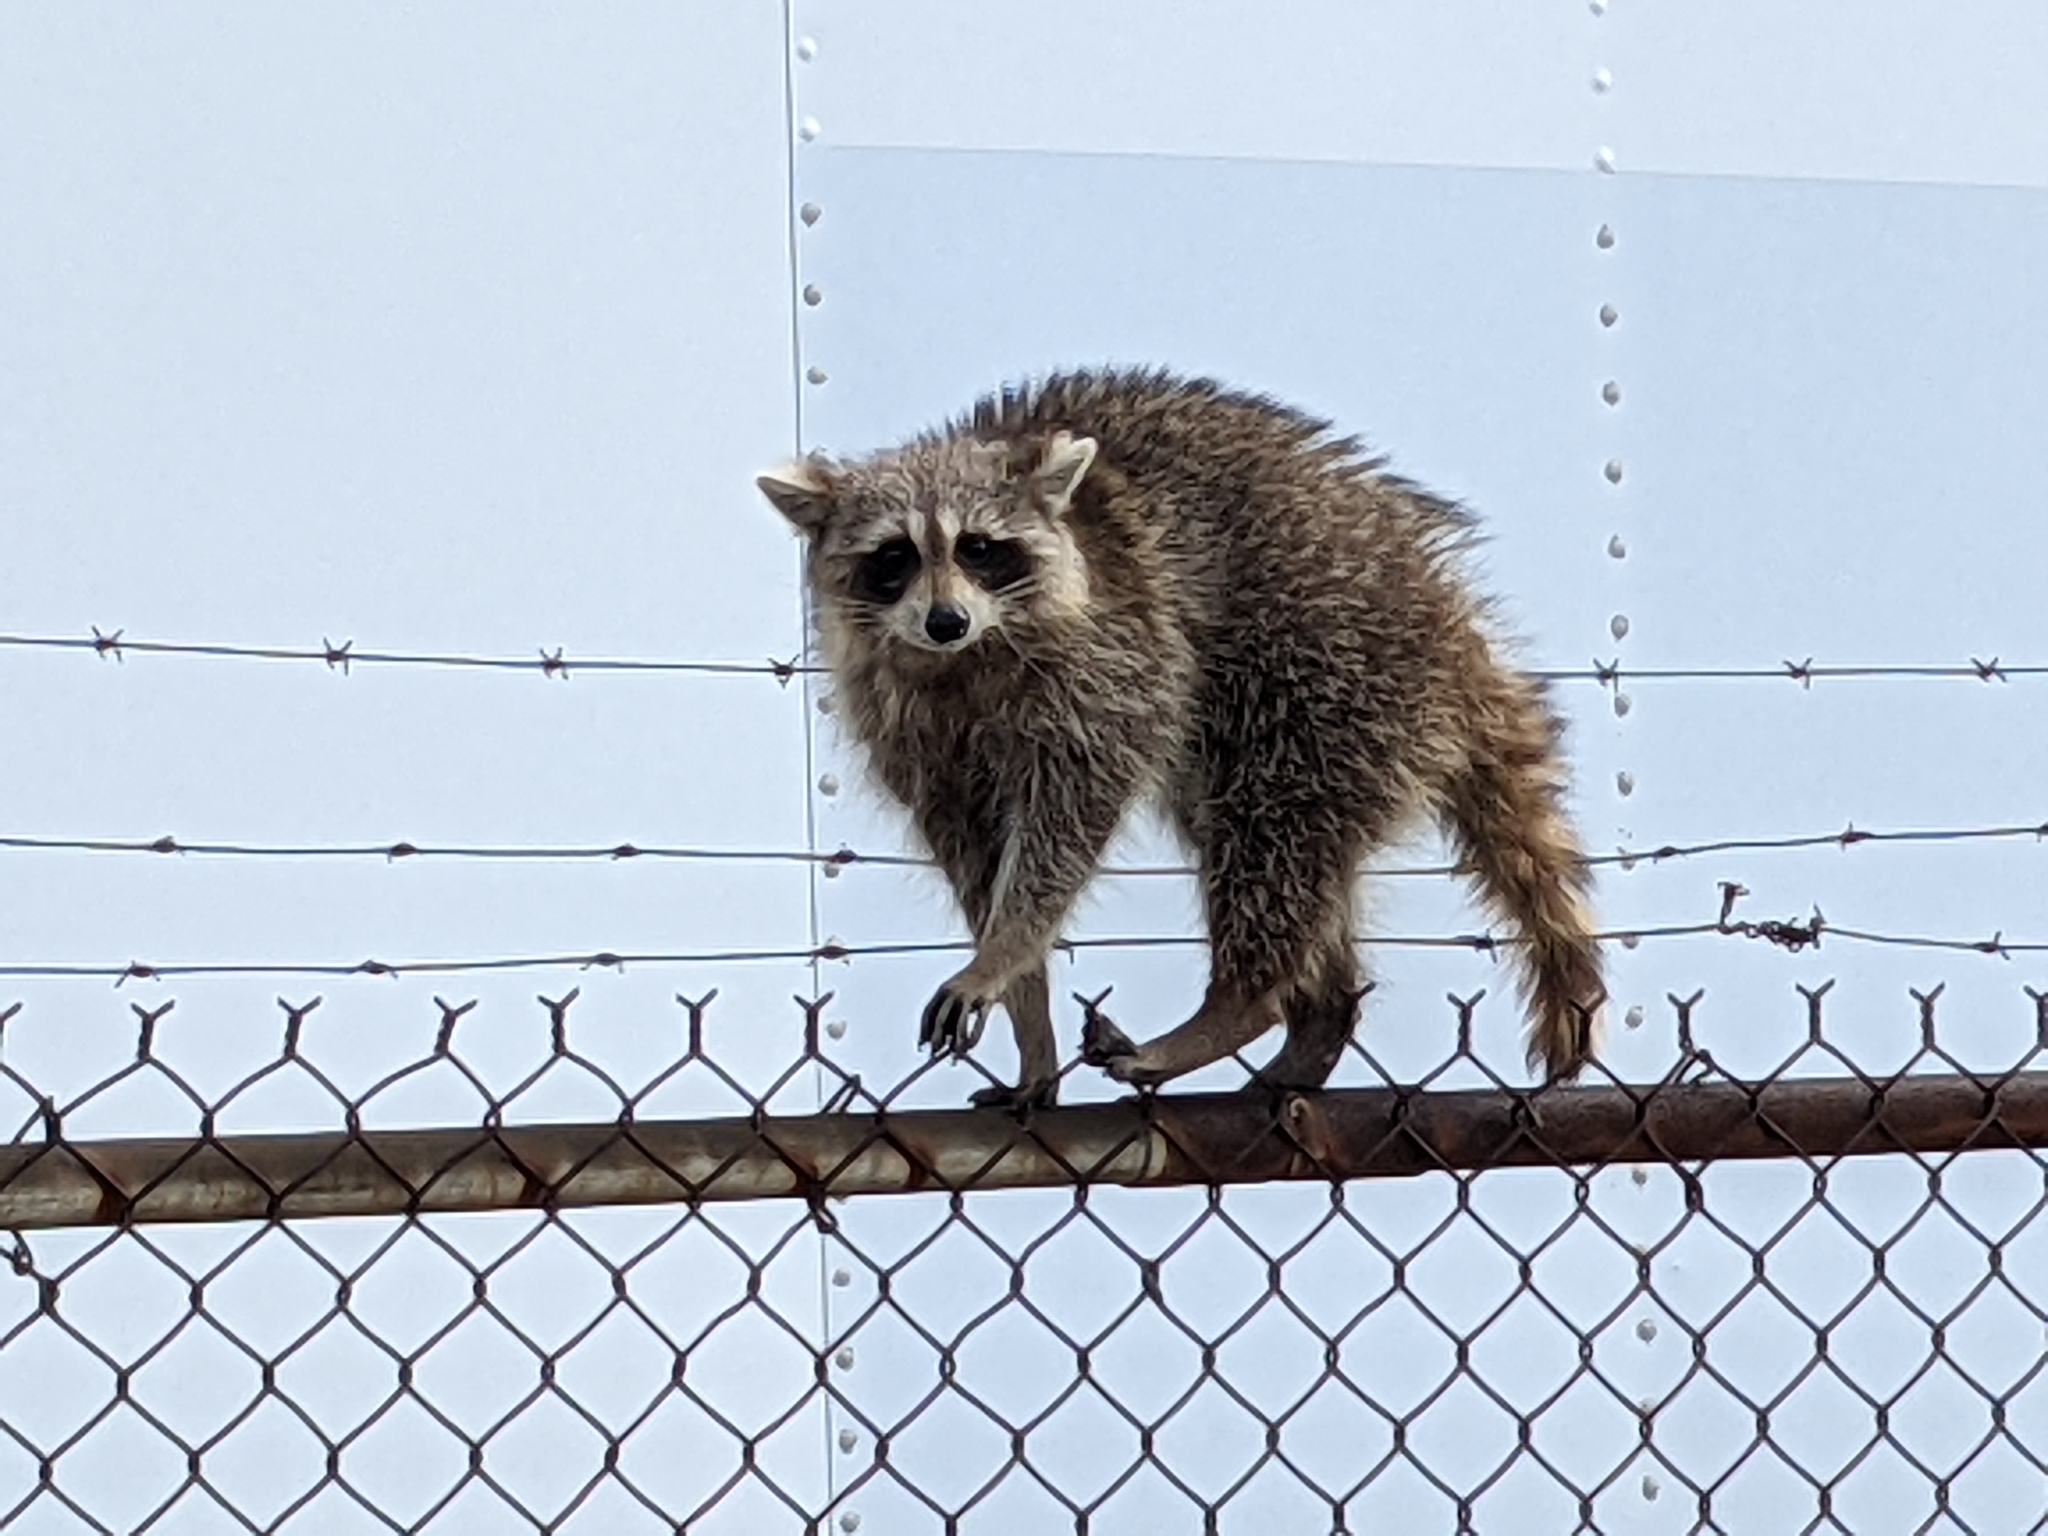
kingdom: Animalia
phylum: Chordata
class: Mammalia
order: Carnivora
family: Procyonidae
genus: Procyon
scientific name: Procyon lotor
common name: Raccoon
